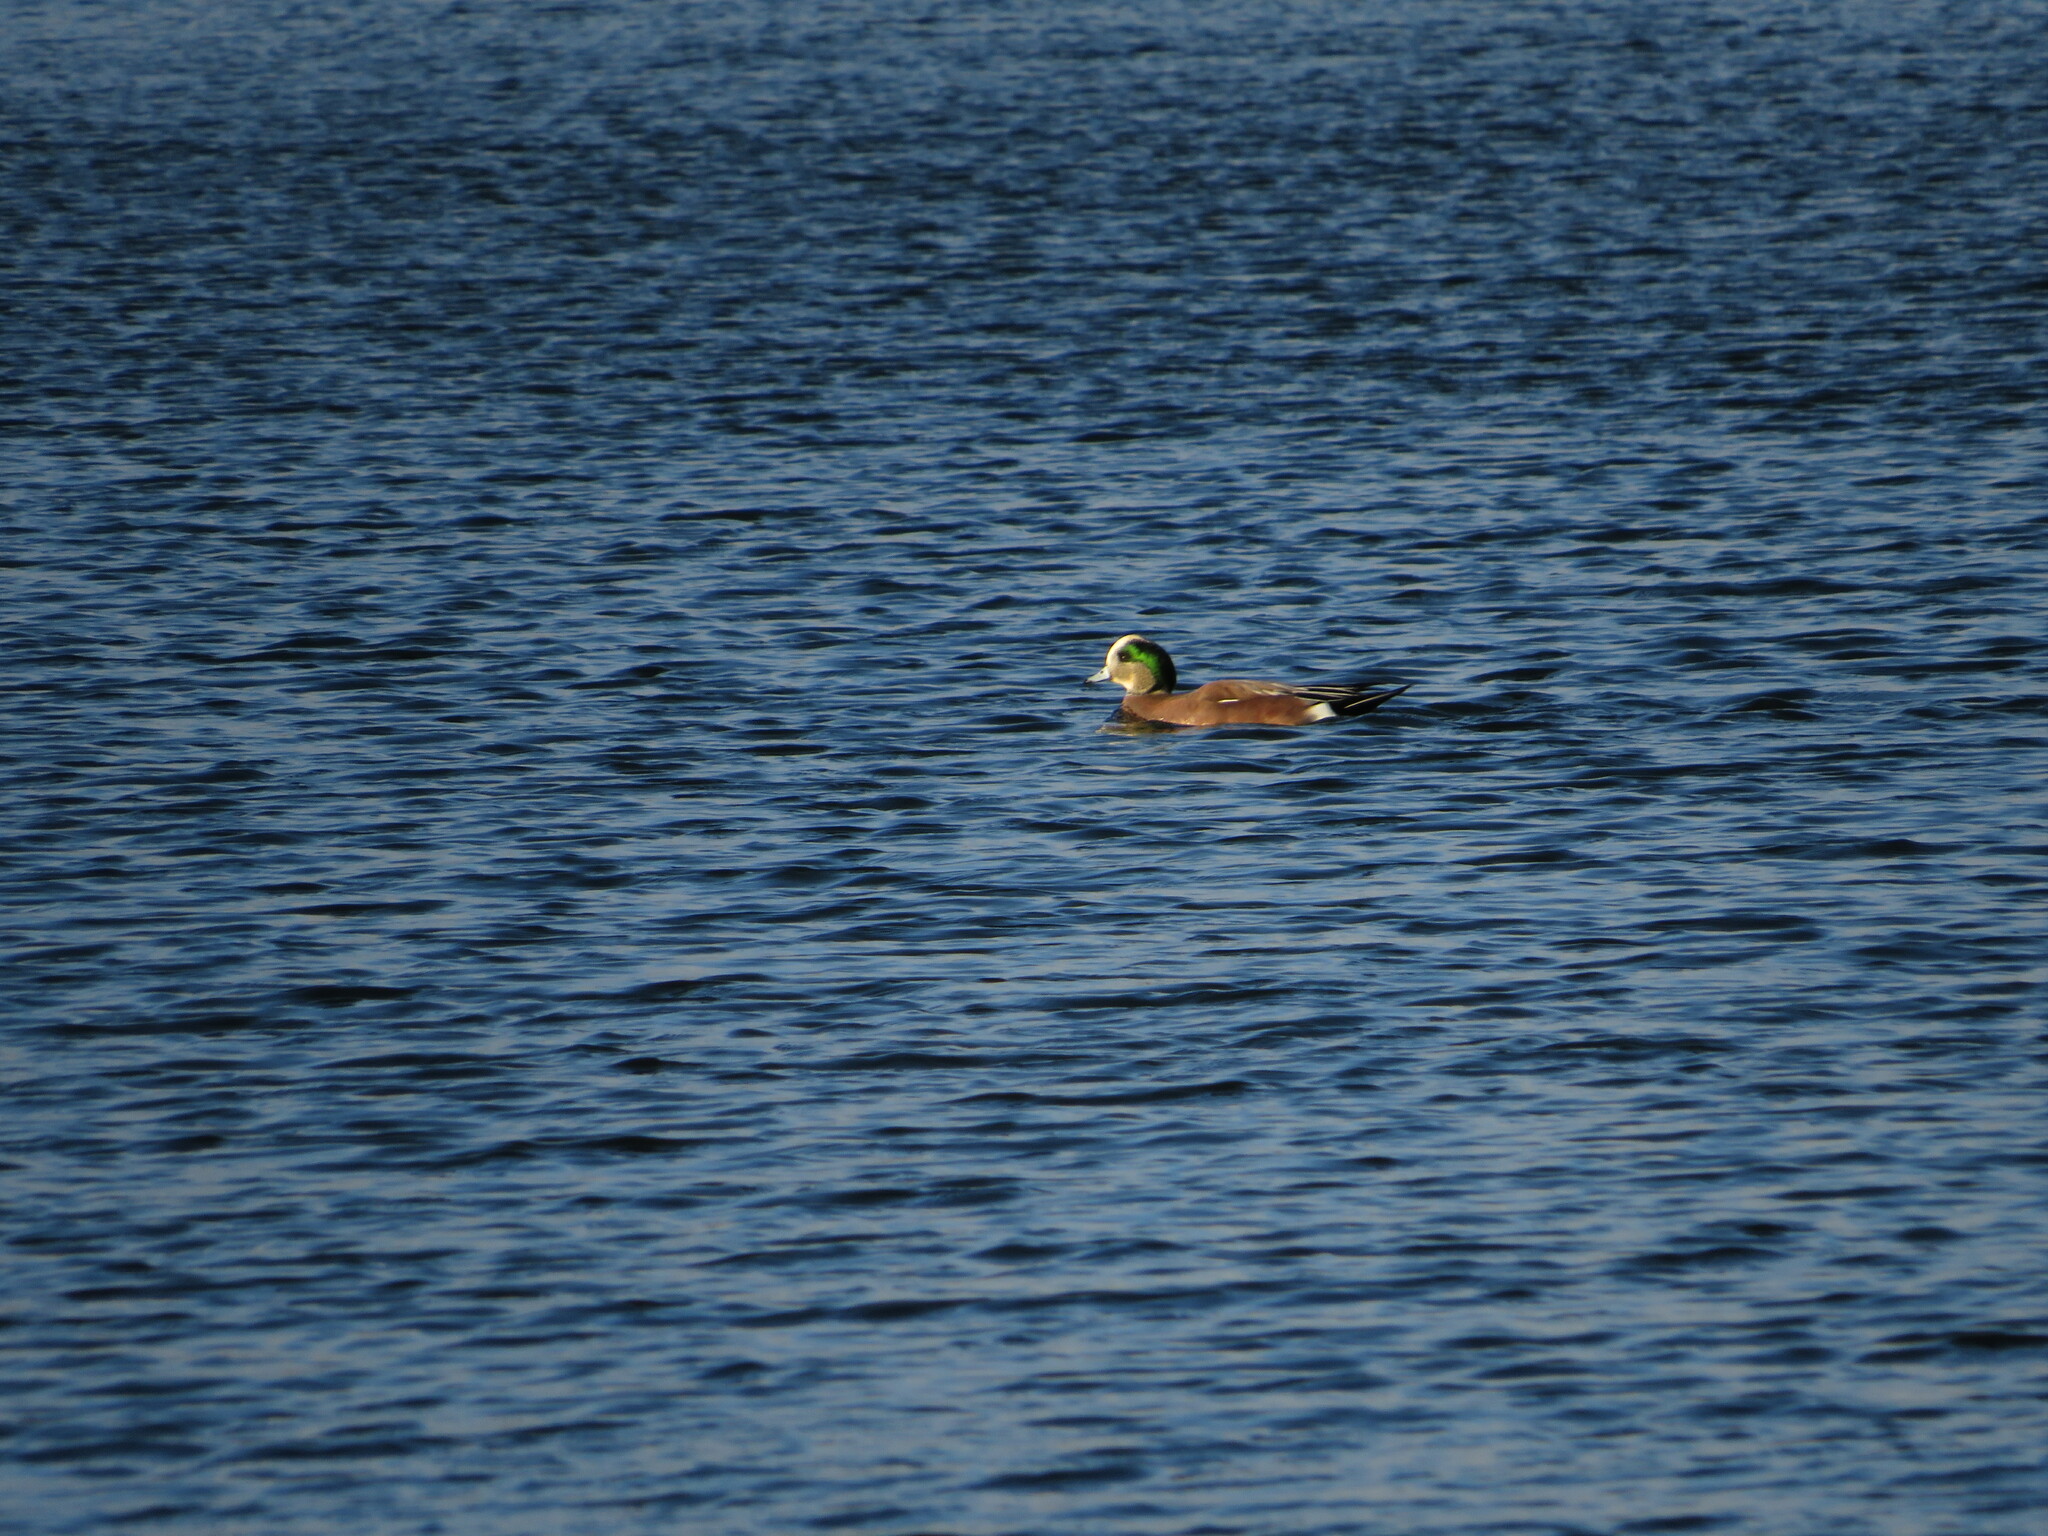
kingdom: Animalia
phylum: Chordata
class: Aves
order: Anseriformes
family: Anatidae
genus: Mareca
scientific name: Mareca americana
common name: American wigeon
